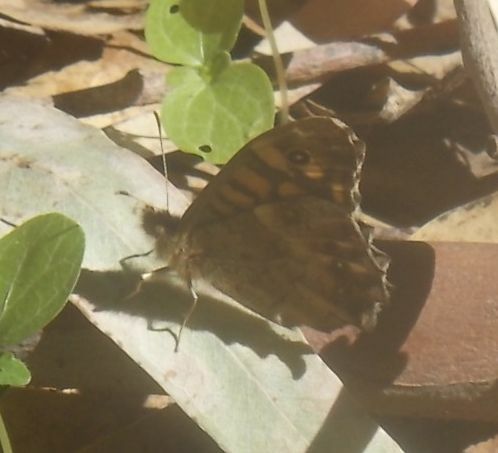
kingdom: Animalia
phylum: Arthropoda
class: Insecta
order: Lepidoptera
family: Nymphalidae
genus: Pararge
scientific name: Pararge aegeria
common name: Speckled wood
